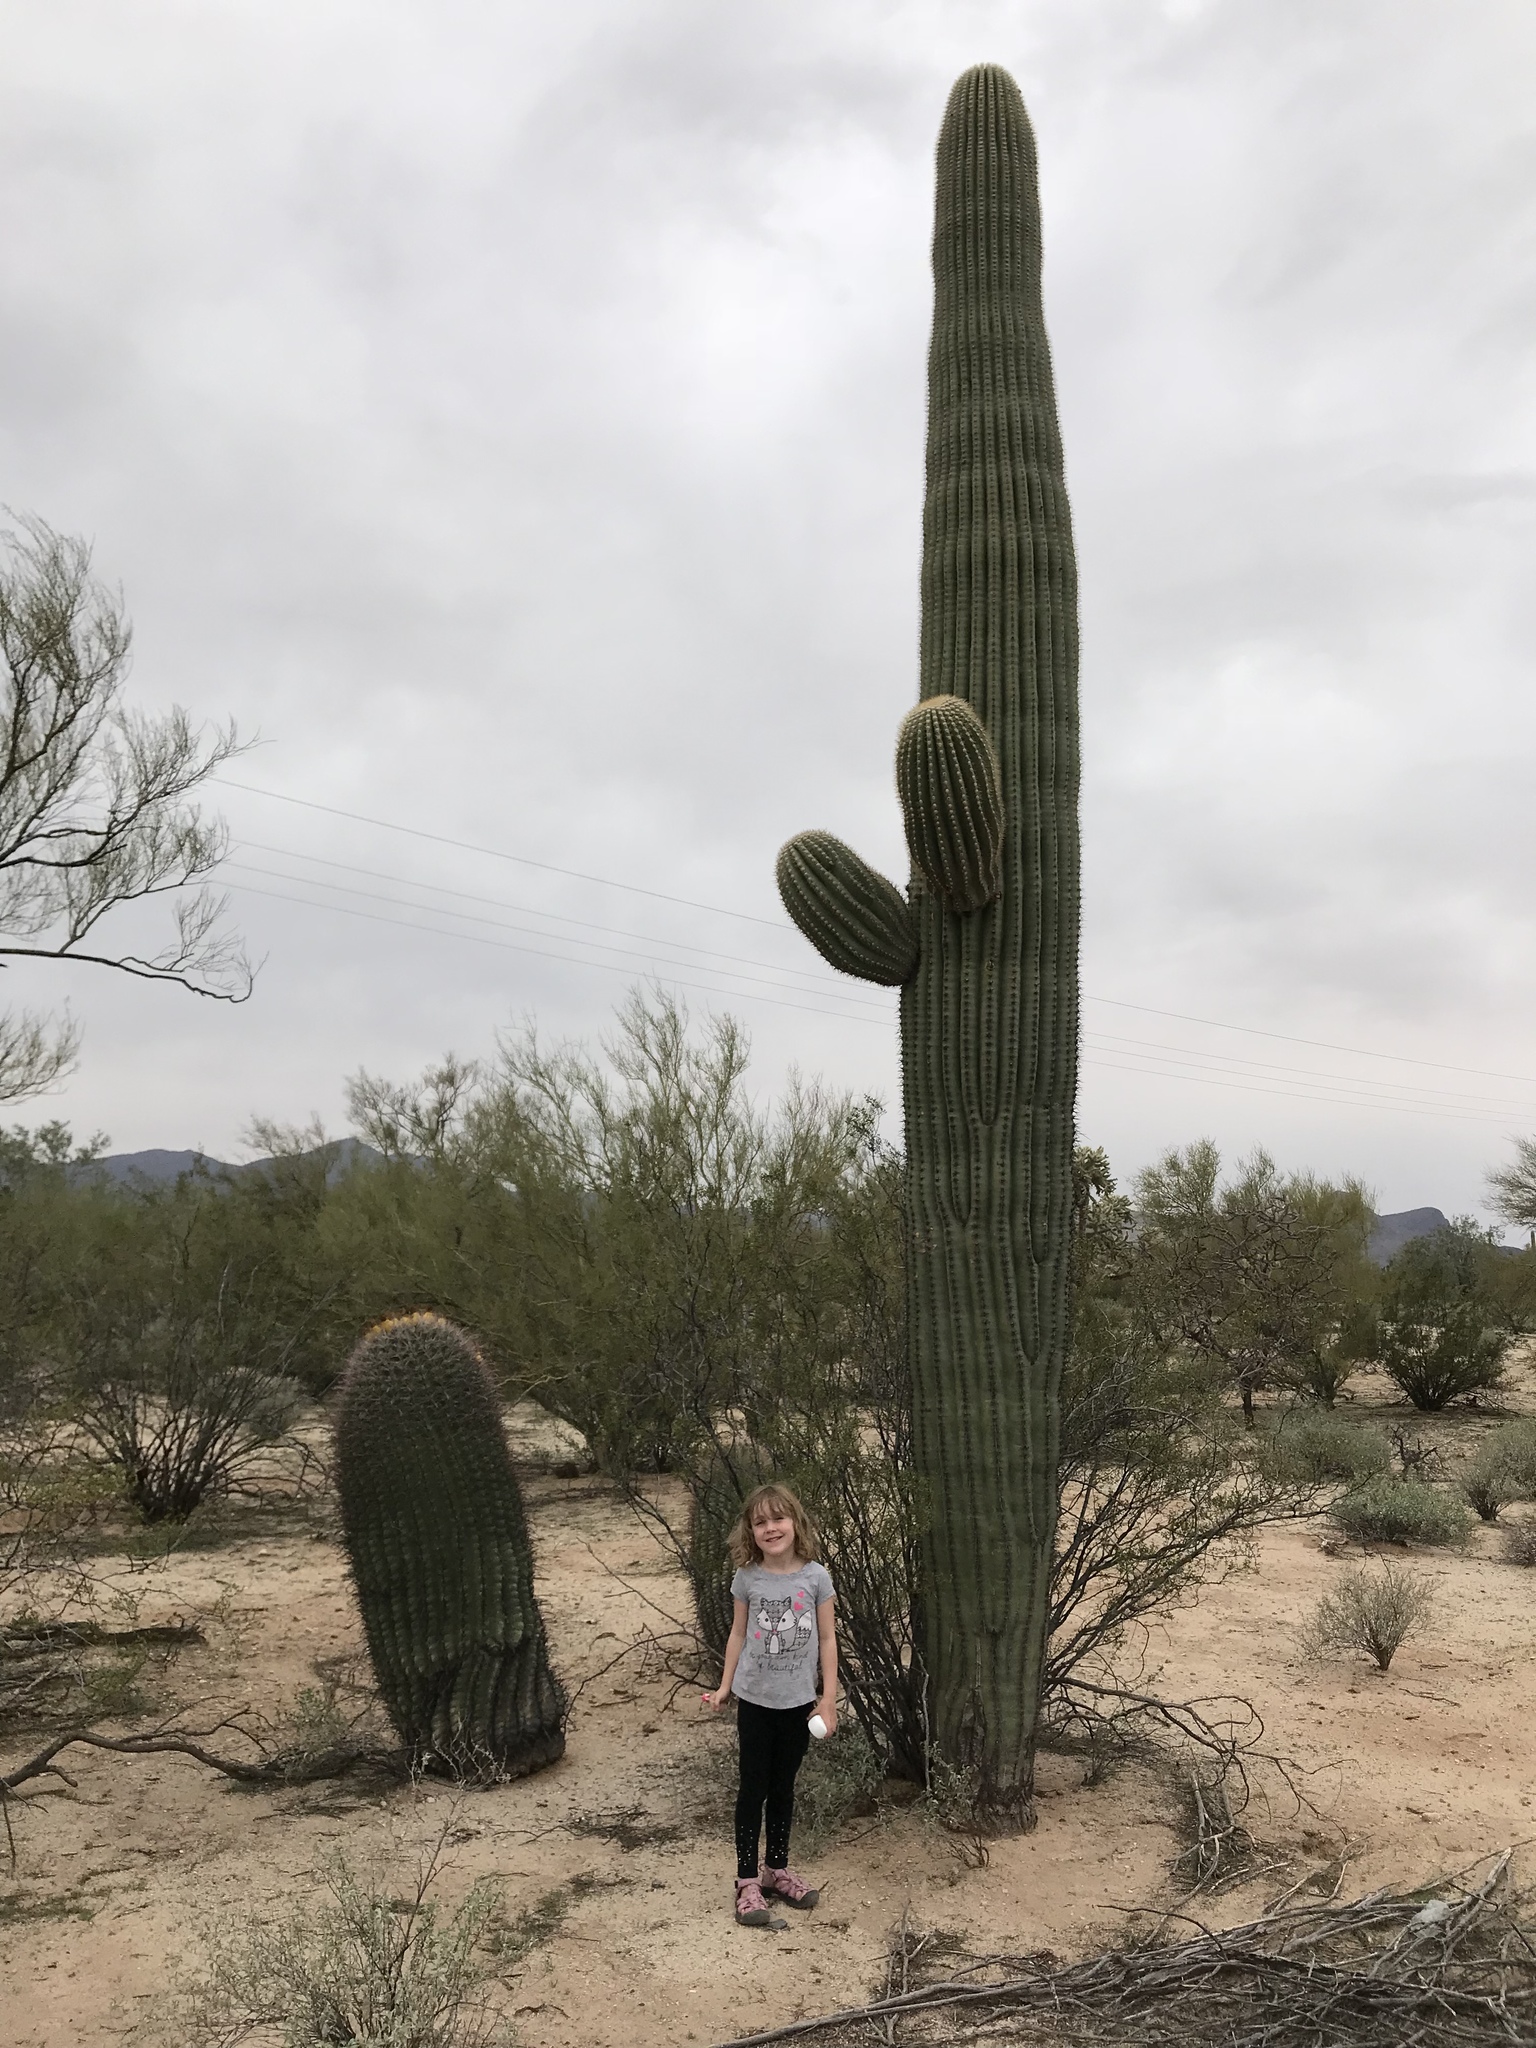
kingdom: Plantae
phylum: Tracheophyta
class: Magnoliopsida
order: Caryophyllales
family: Cactaceae
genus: Carnegiea
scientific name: Carnegiea gigantea
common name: Saguaro
